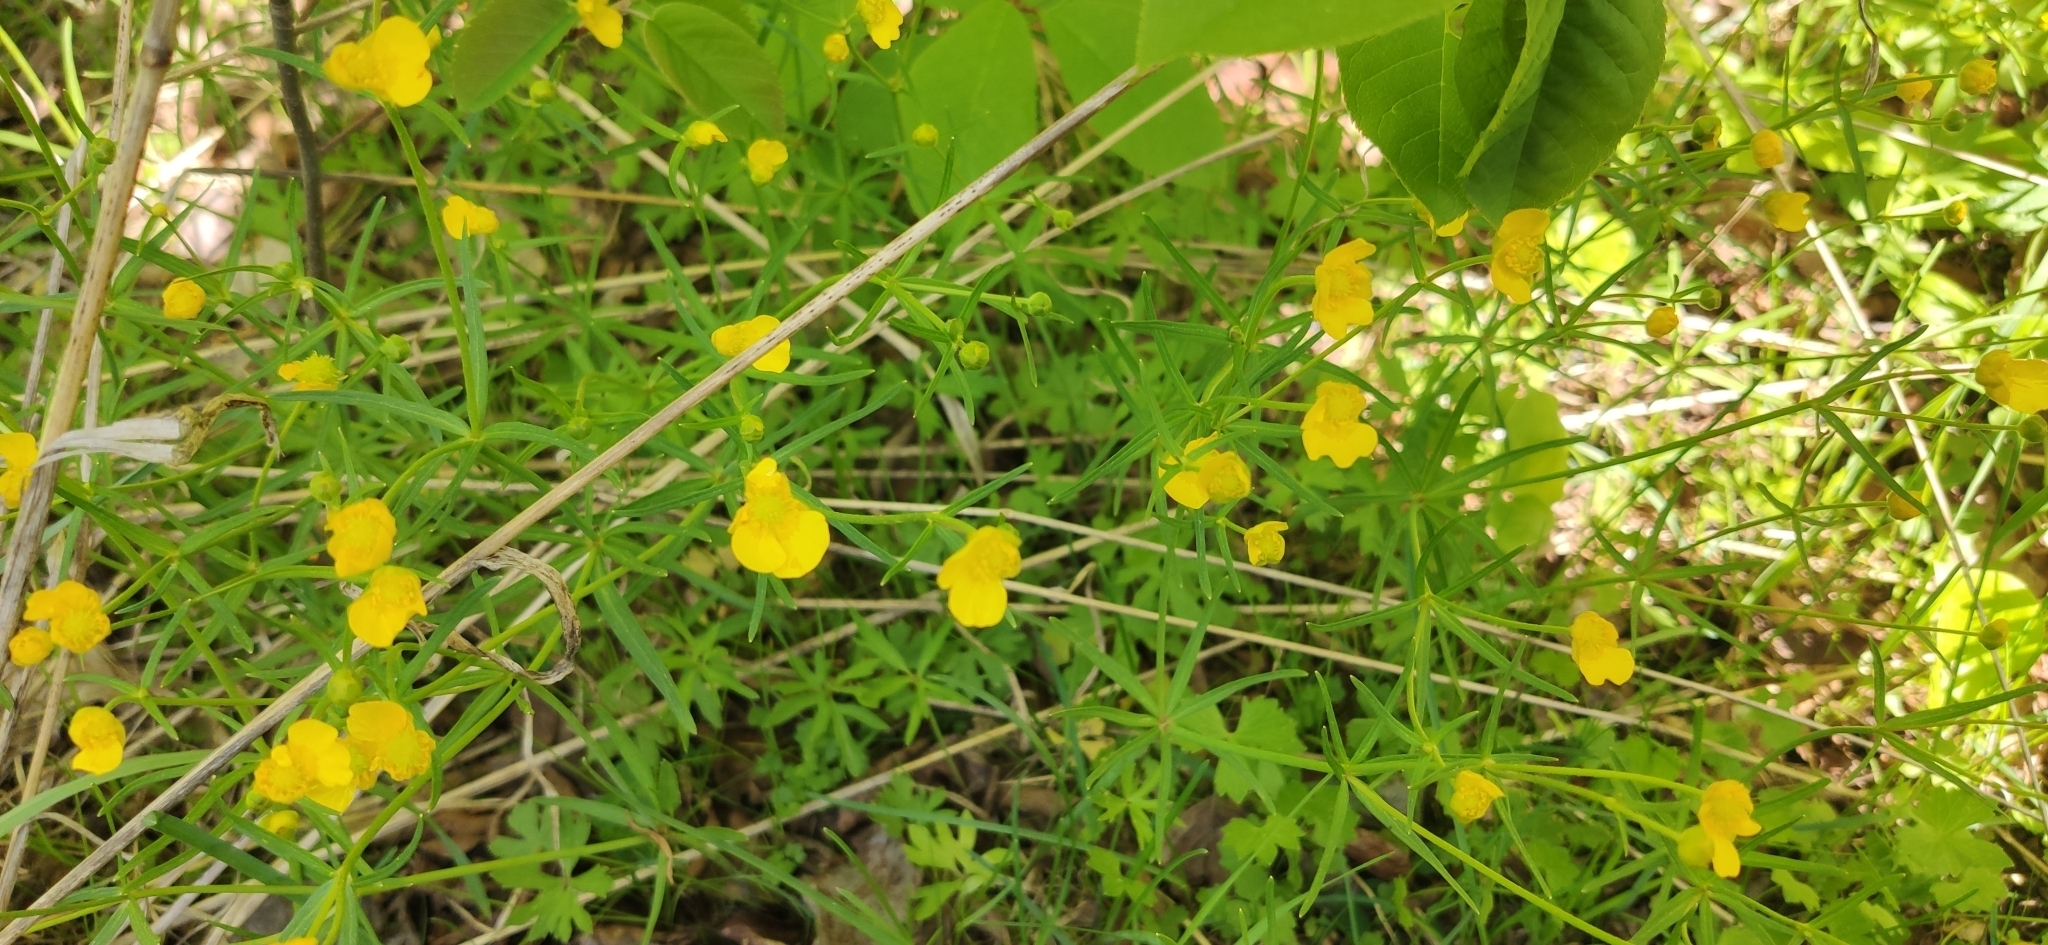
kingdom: Plantae
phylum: Tracheophyta
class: Magnoliopsida
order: Ranunculales
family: Ranunculaceae
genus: Ranunculus
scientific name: Ranunculus auricomus
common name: Goldilocks buttercup
